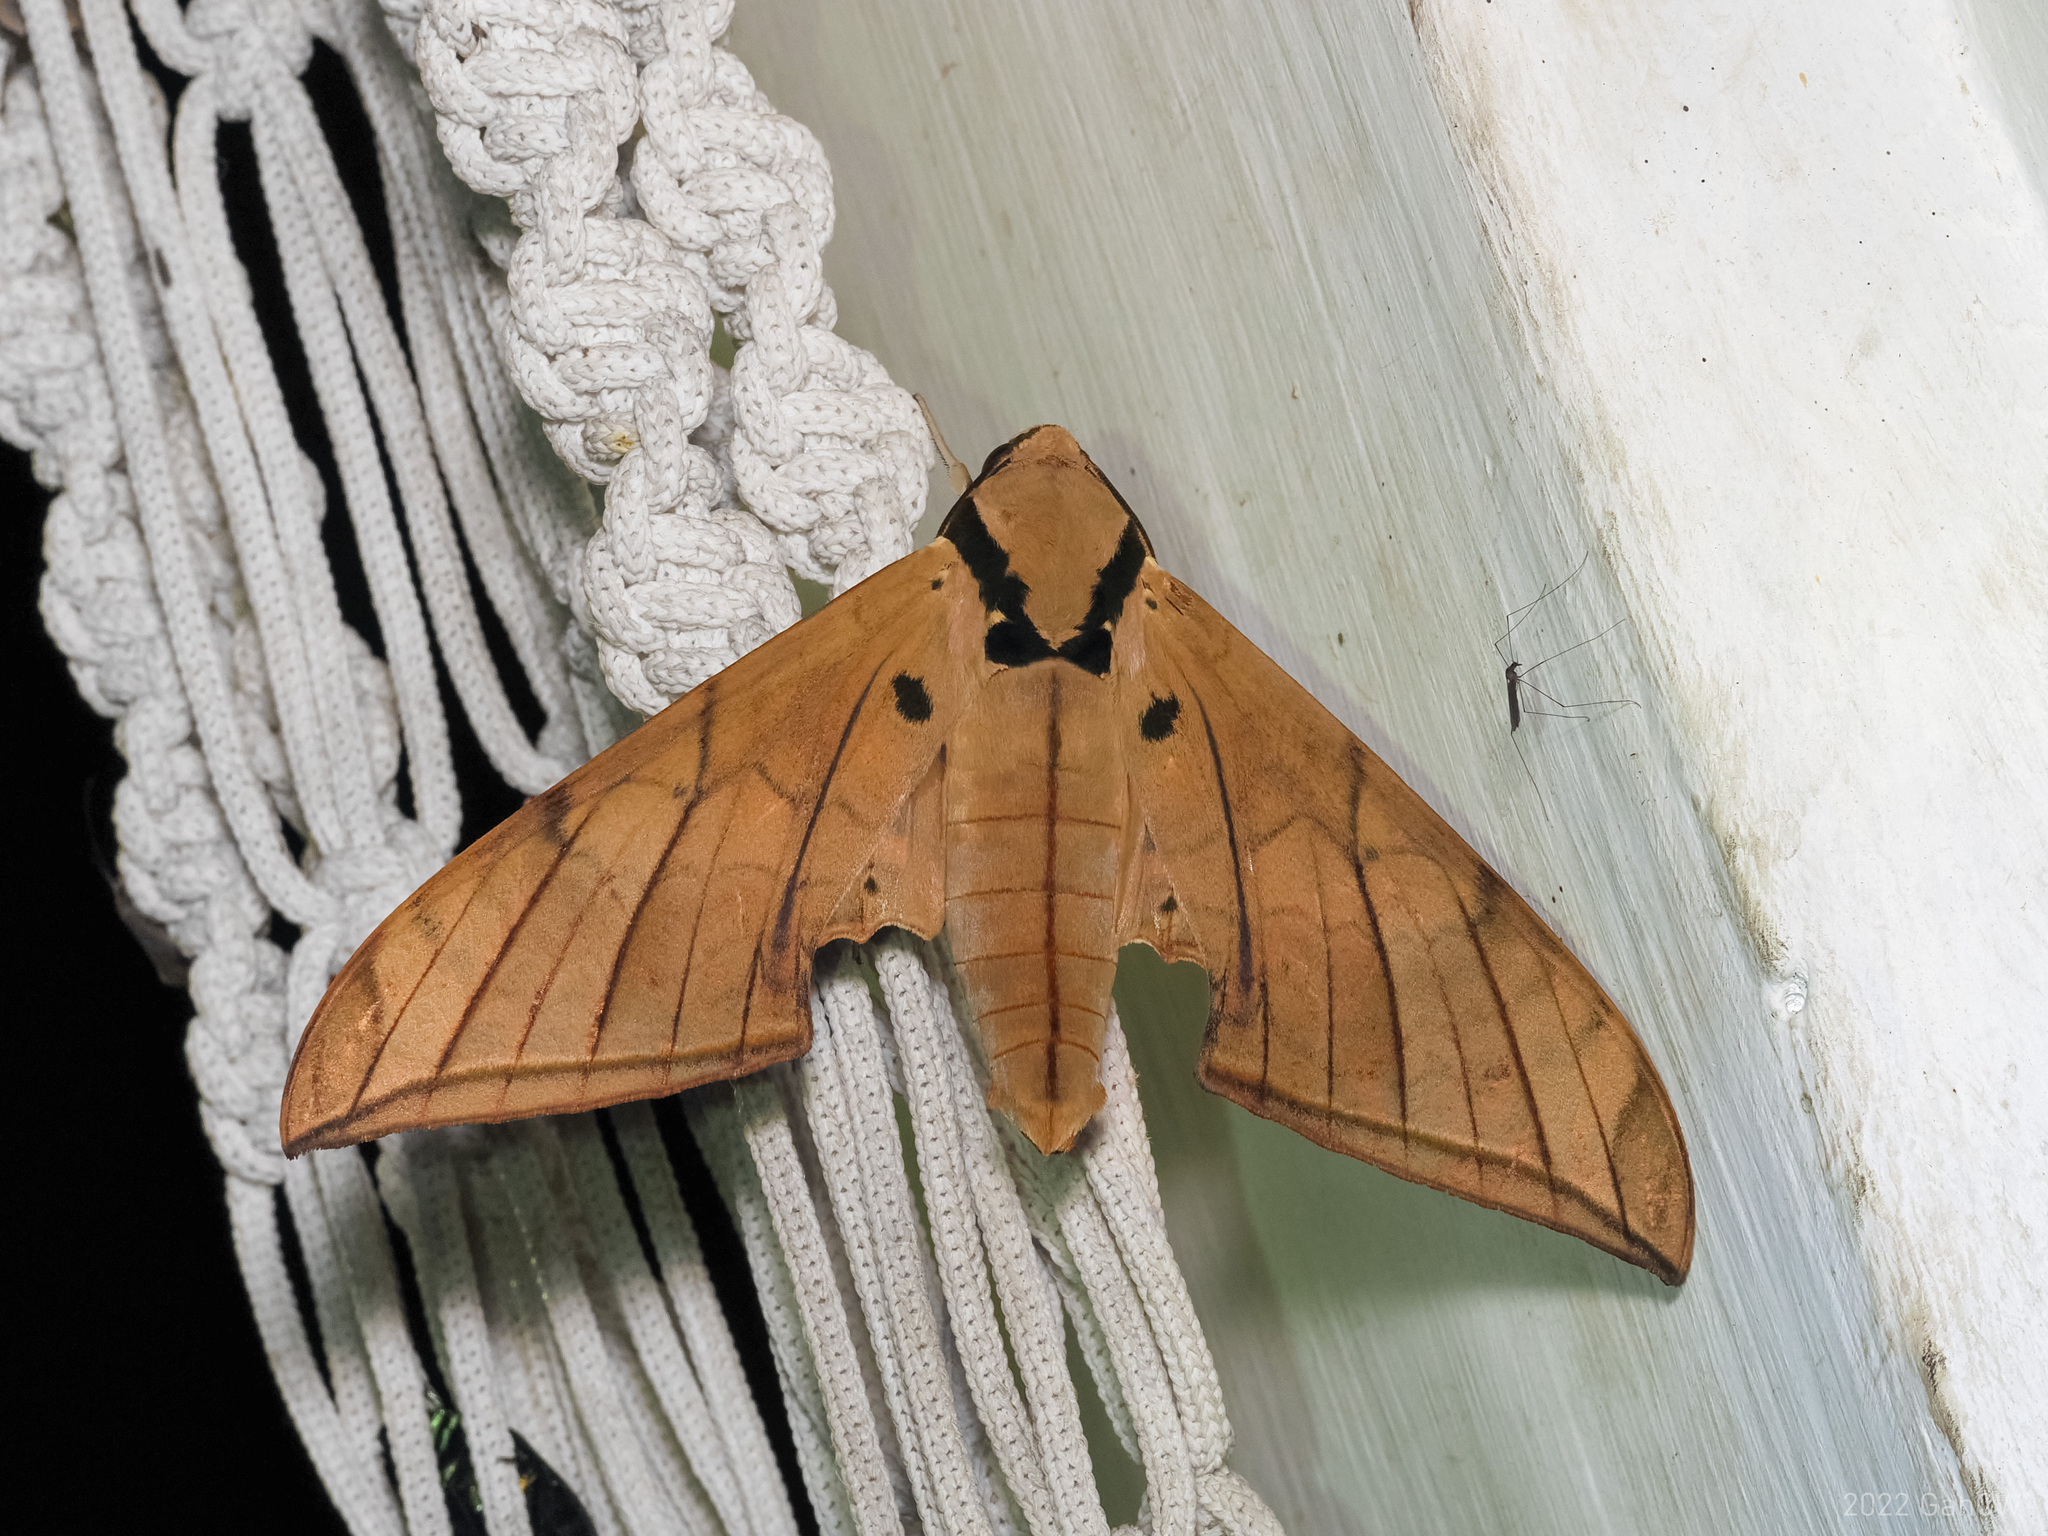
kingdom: Animalia
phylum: Arthropoda
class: Insecta
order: Lepidoptera
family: Sphingidae
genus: Ambulyx
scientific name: Ambulyx pryeri
